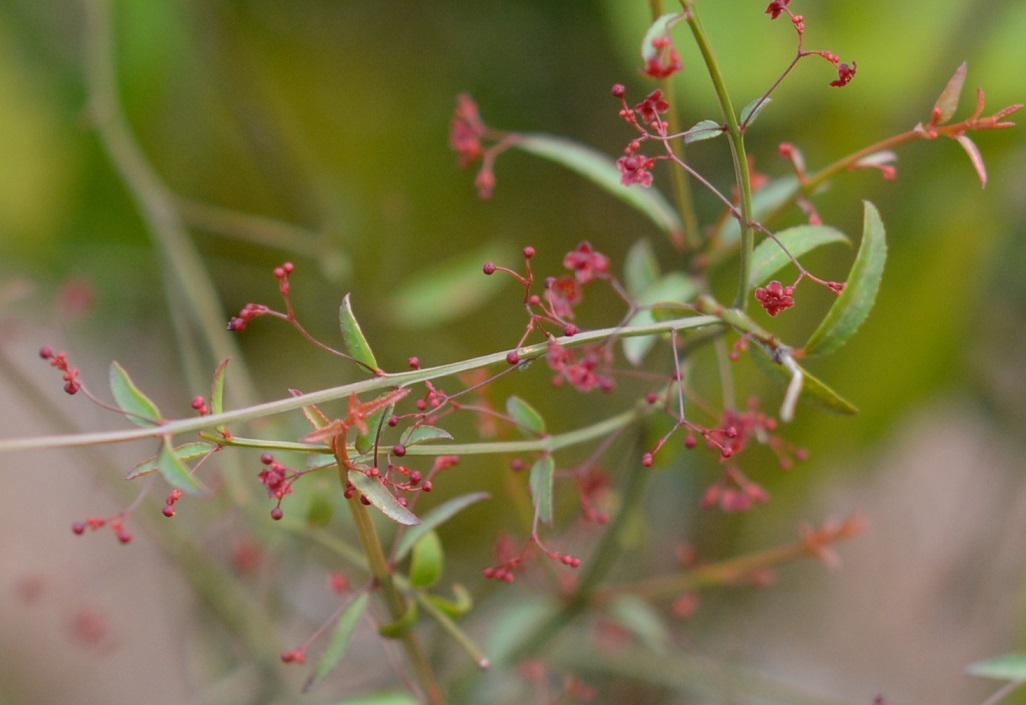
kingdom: Plantae
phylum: Tracheophyta
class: Magnoliopsida
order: Celastrales
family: Celastraceae
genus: Crossopetalum
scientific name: Crossopetalum uragoga
